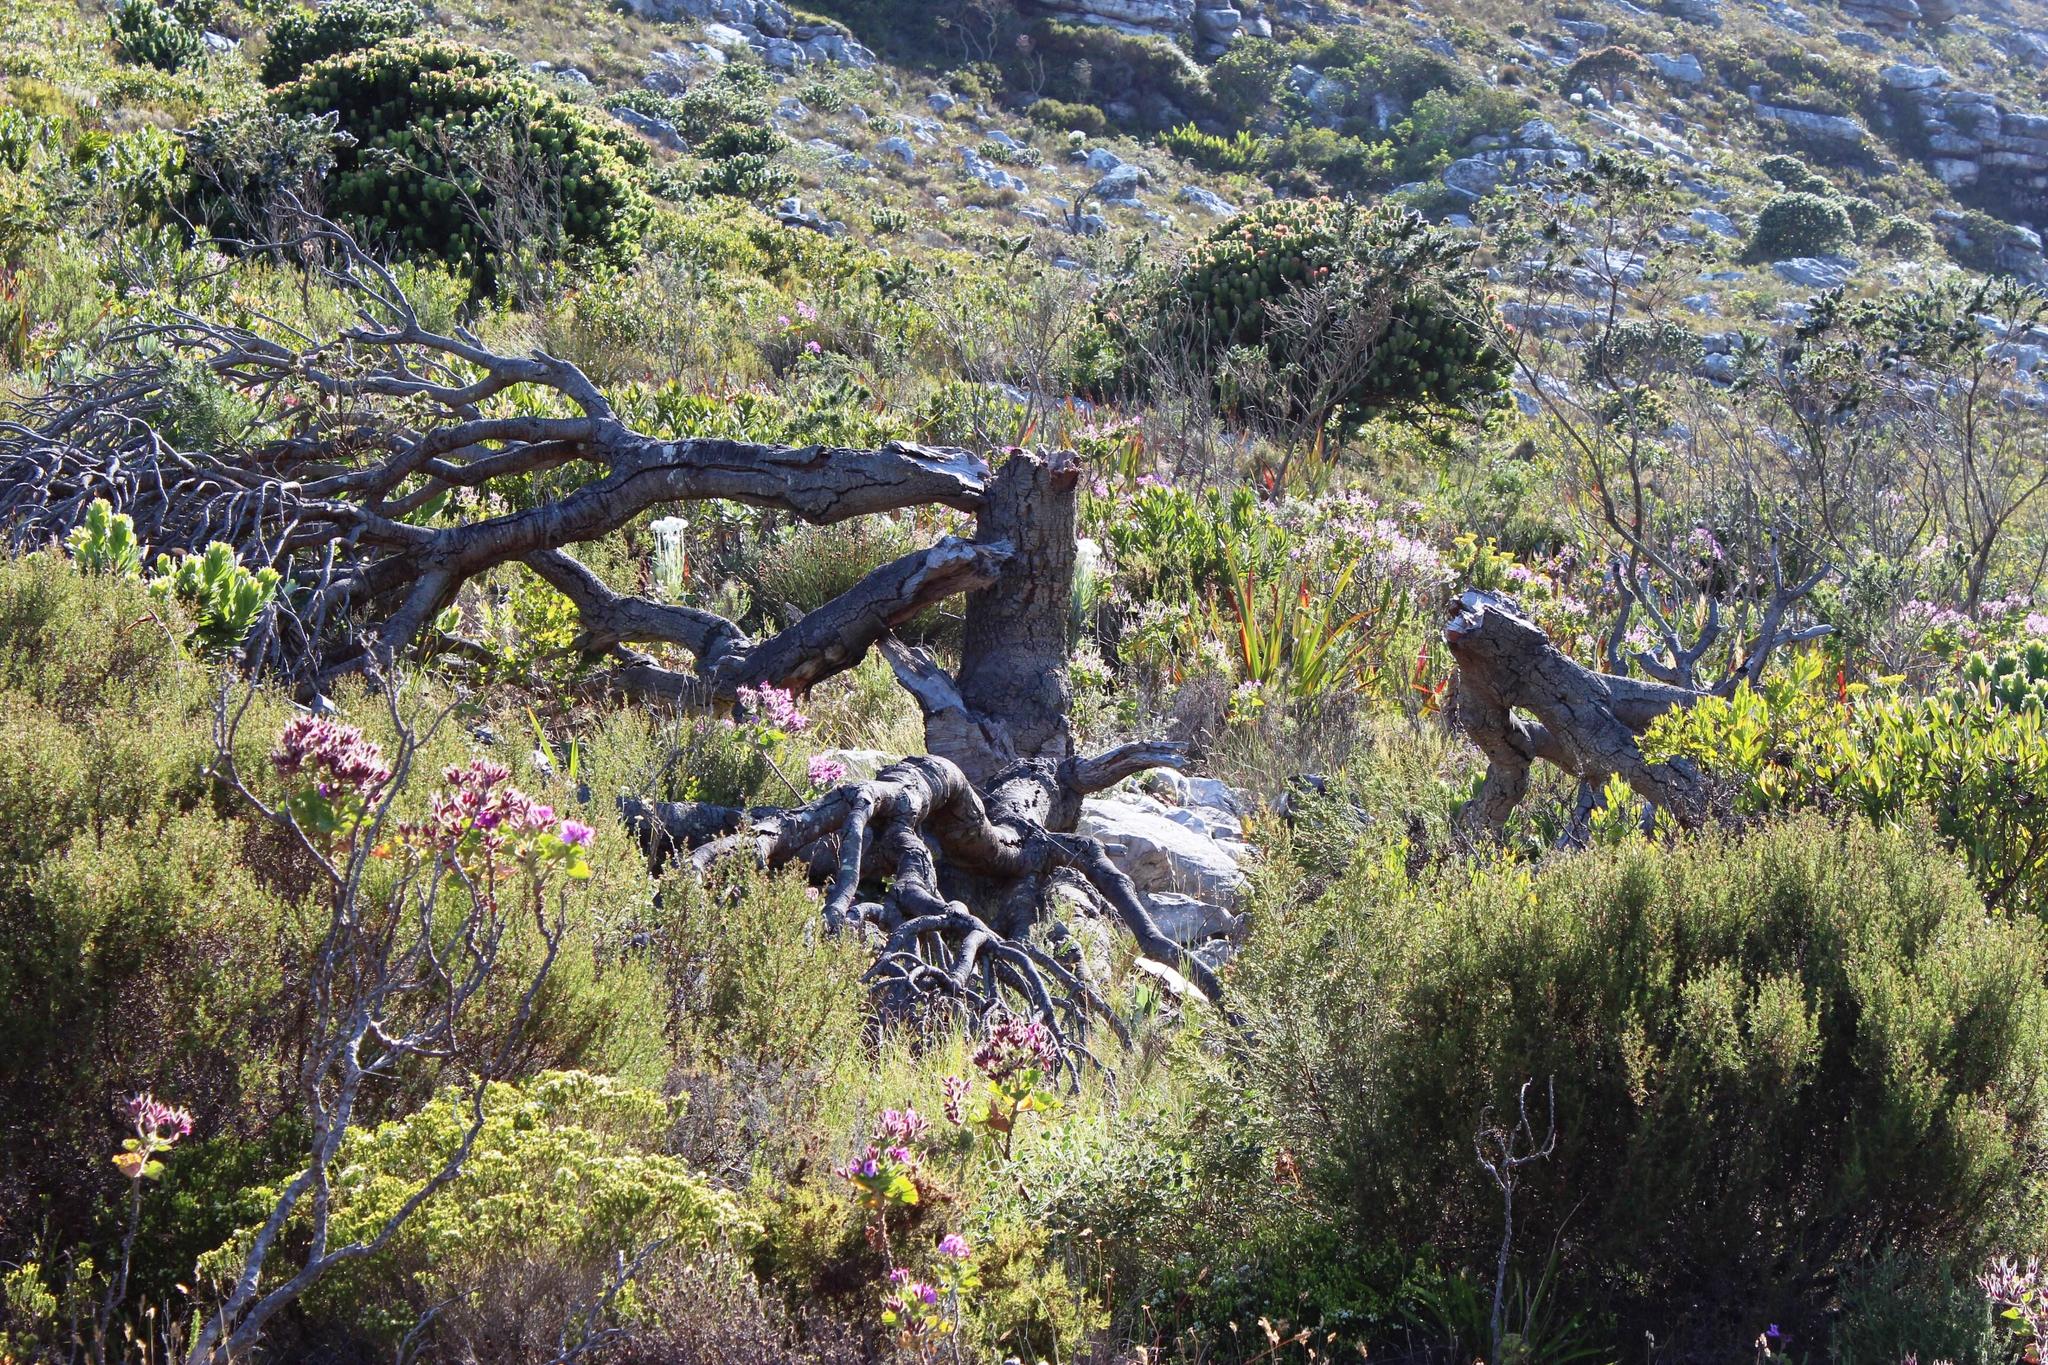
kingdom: Plantae
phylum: Tracheophyta
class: Magnoliopsida
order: Proteales
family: Proteaceae
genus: Mimetes
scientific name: Mimetes fimbriifolius
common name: Fringed bottlebrush
